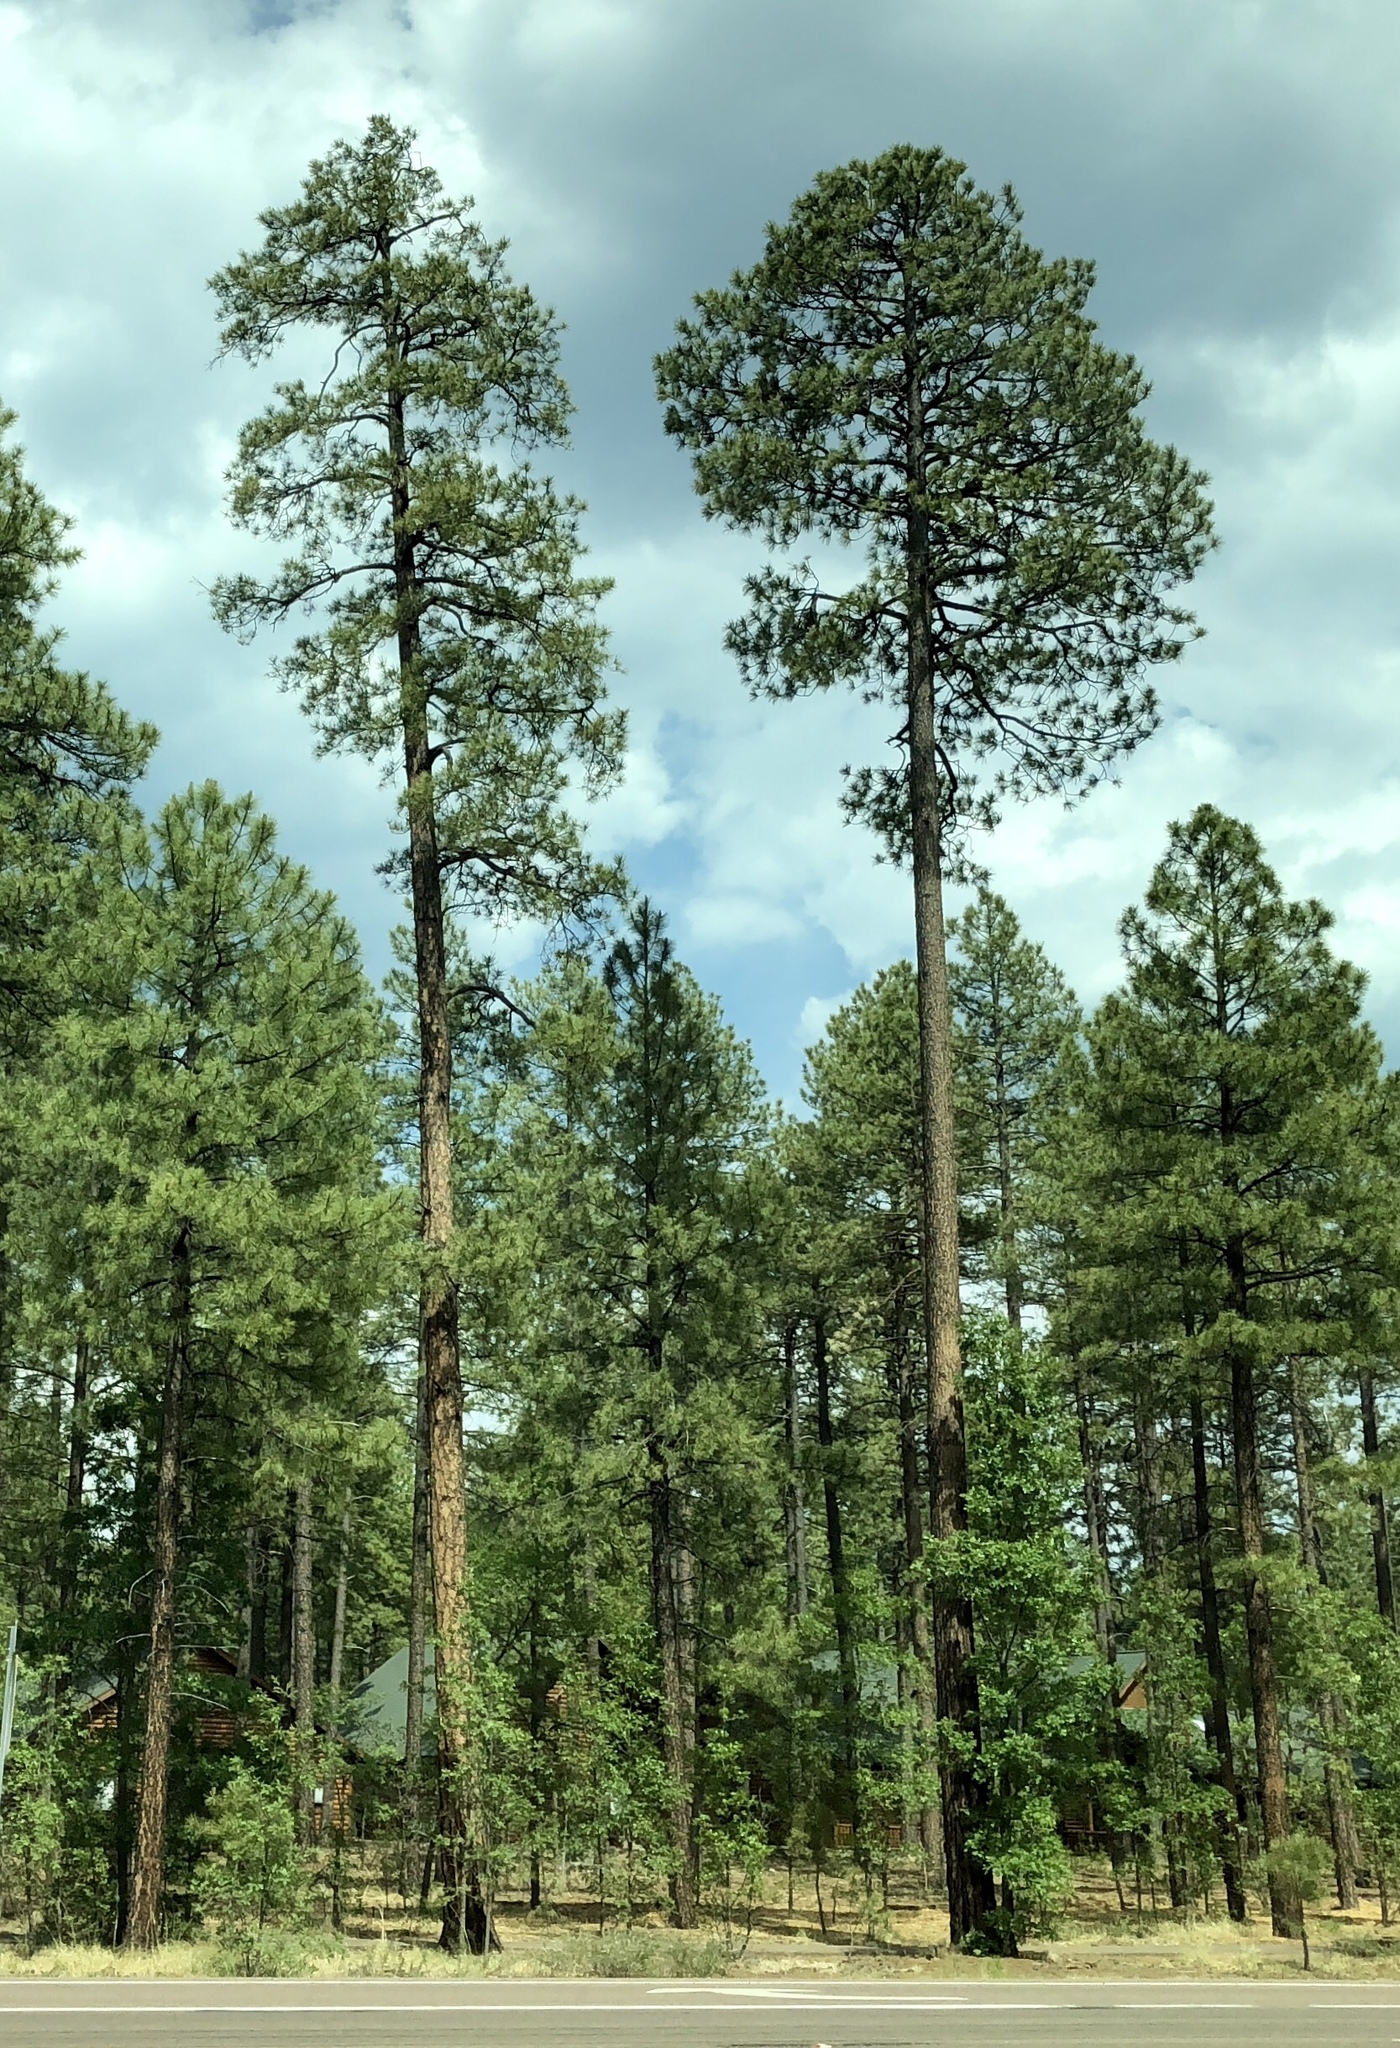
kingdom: Plantae
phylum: Tracheophyta
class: Pinopsida
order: Pinales
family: Pinaceae
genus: Pinus
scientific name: Pinus ponderosa
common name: Western yellow-pine
